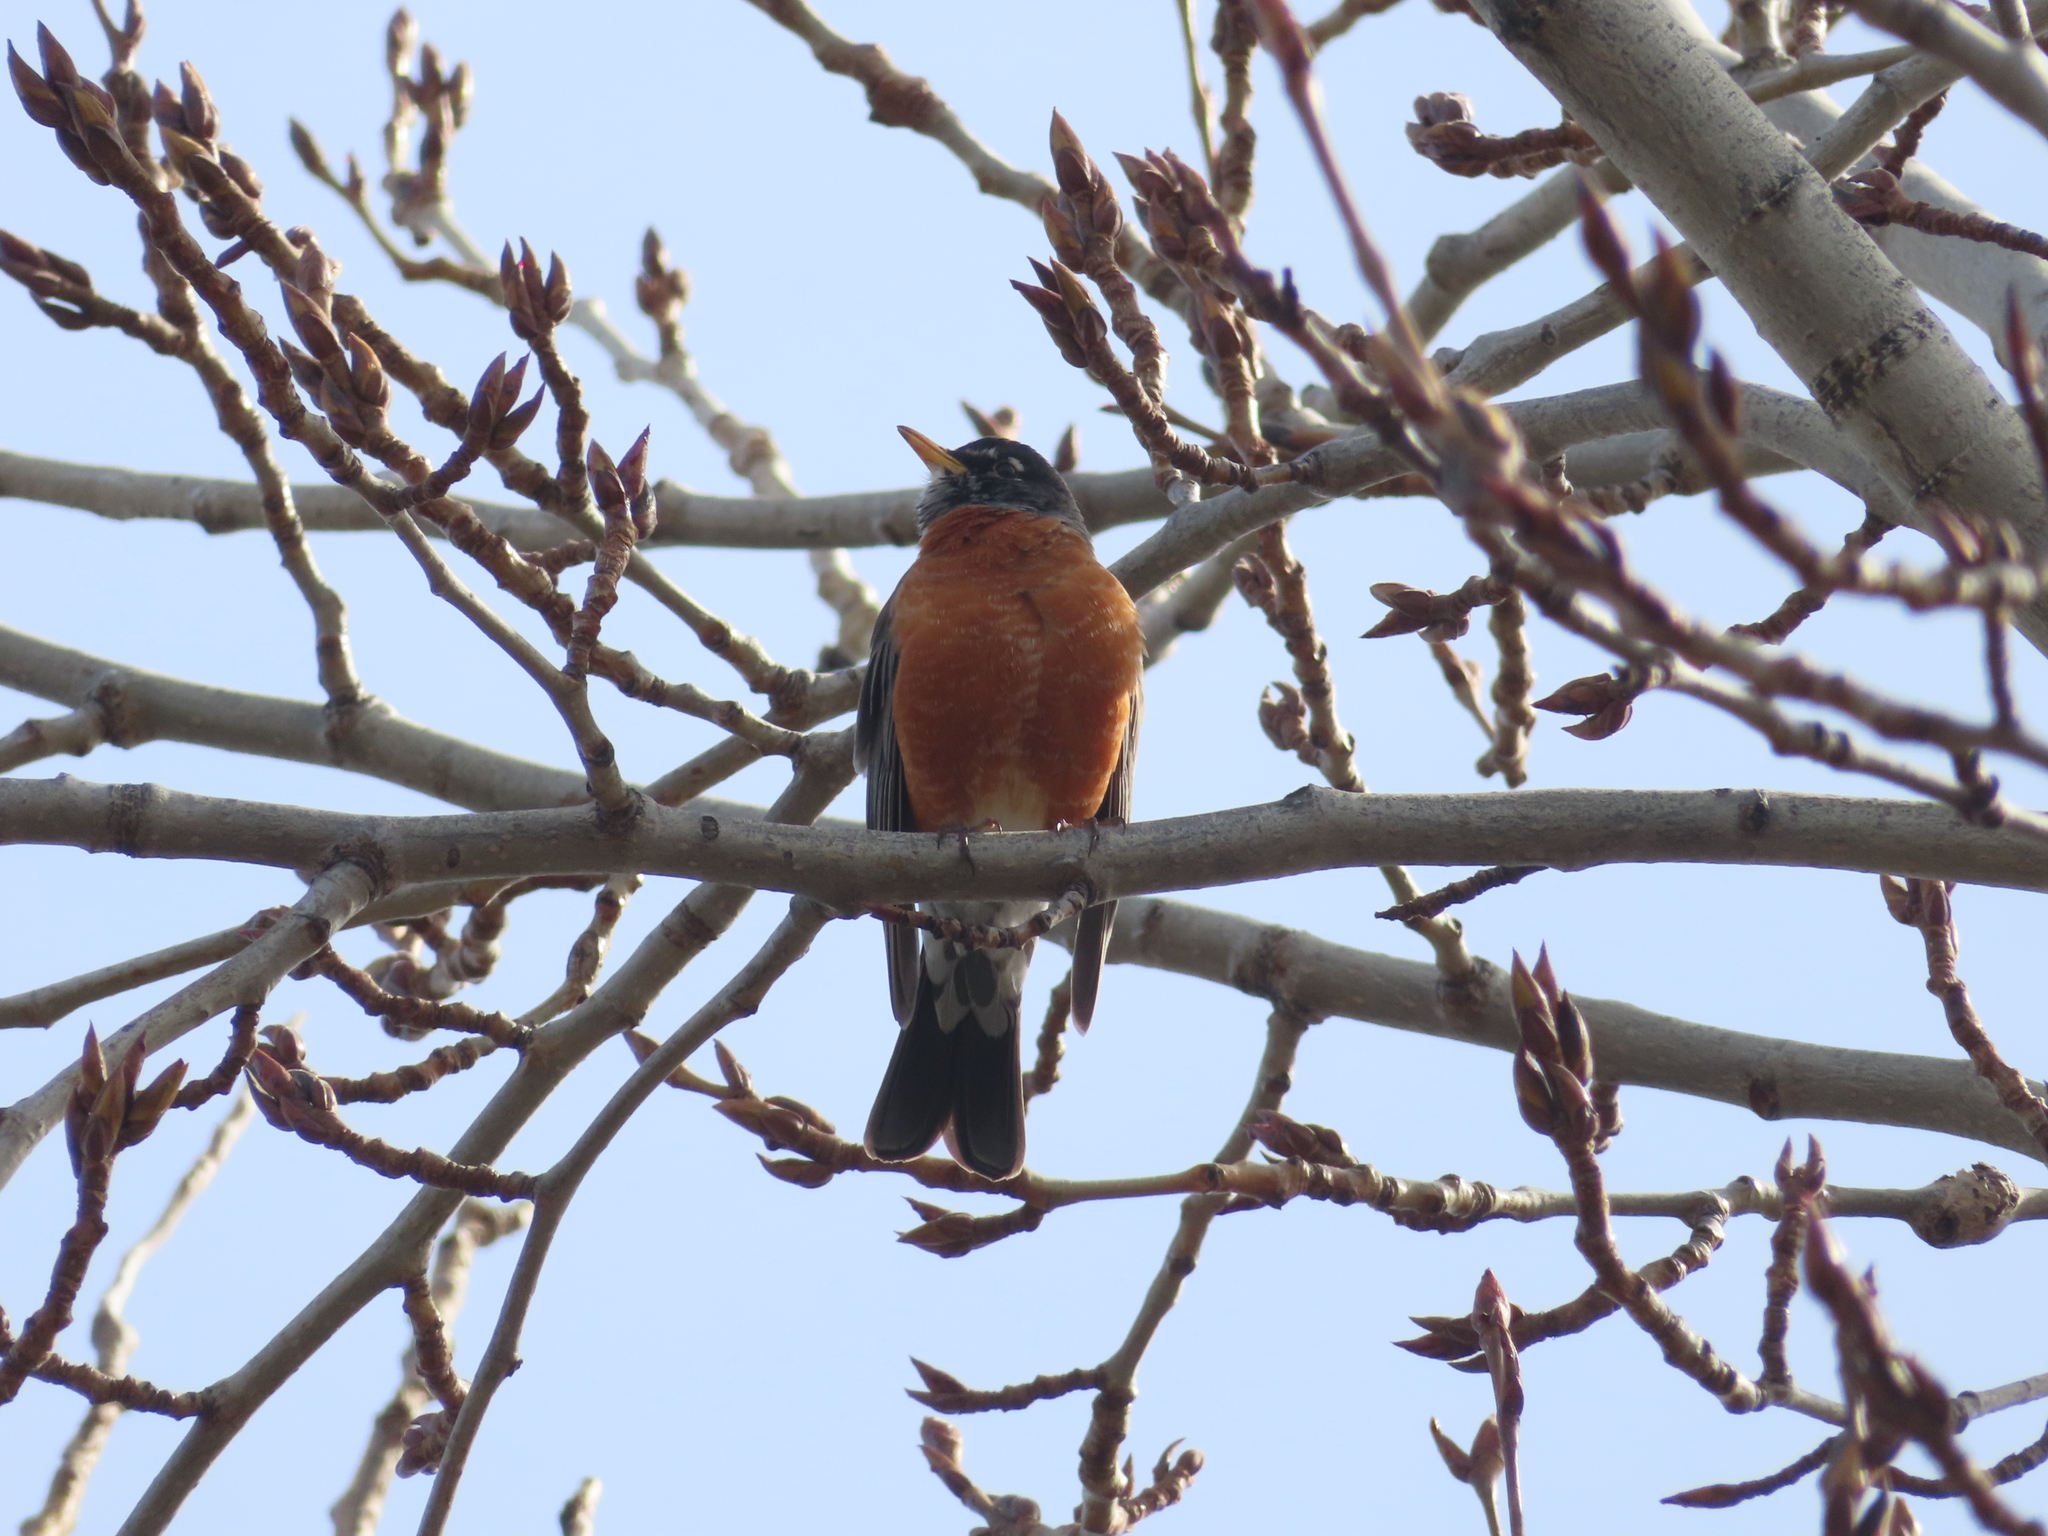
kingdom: Animalia
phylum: Chordata
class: Aves
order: Passeriformes
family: Turdidae
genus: Turdus
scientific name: Turdus migratorius
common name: American robin
